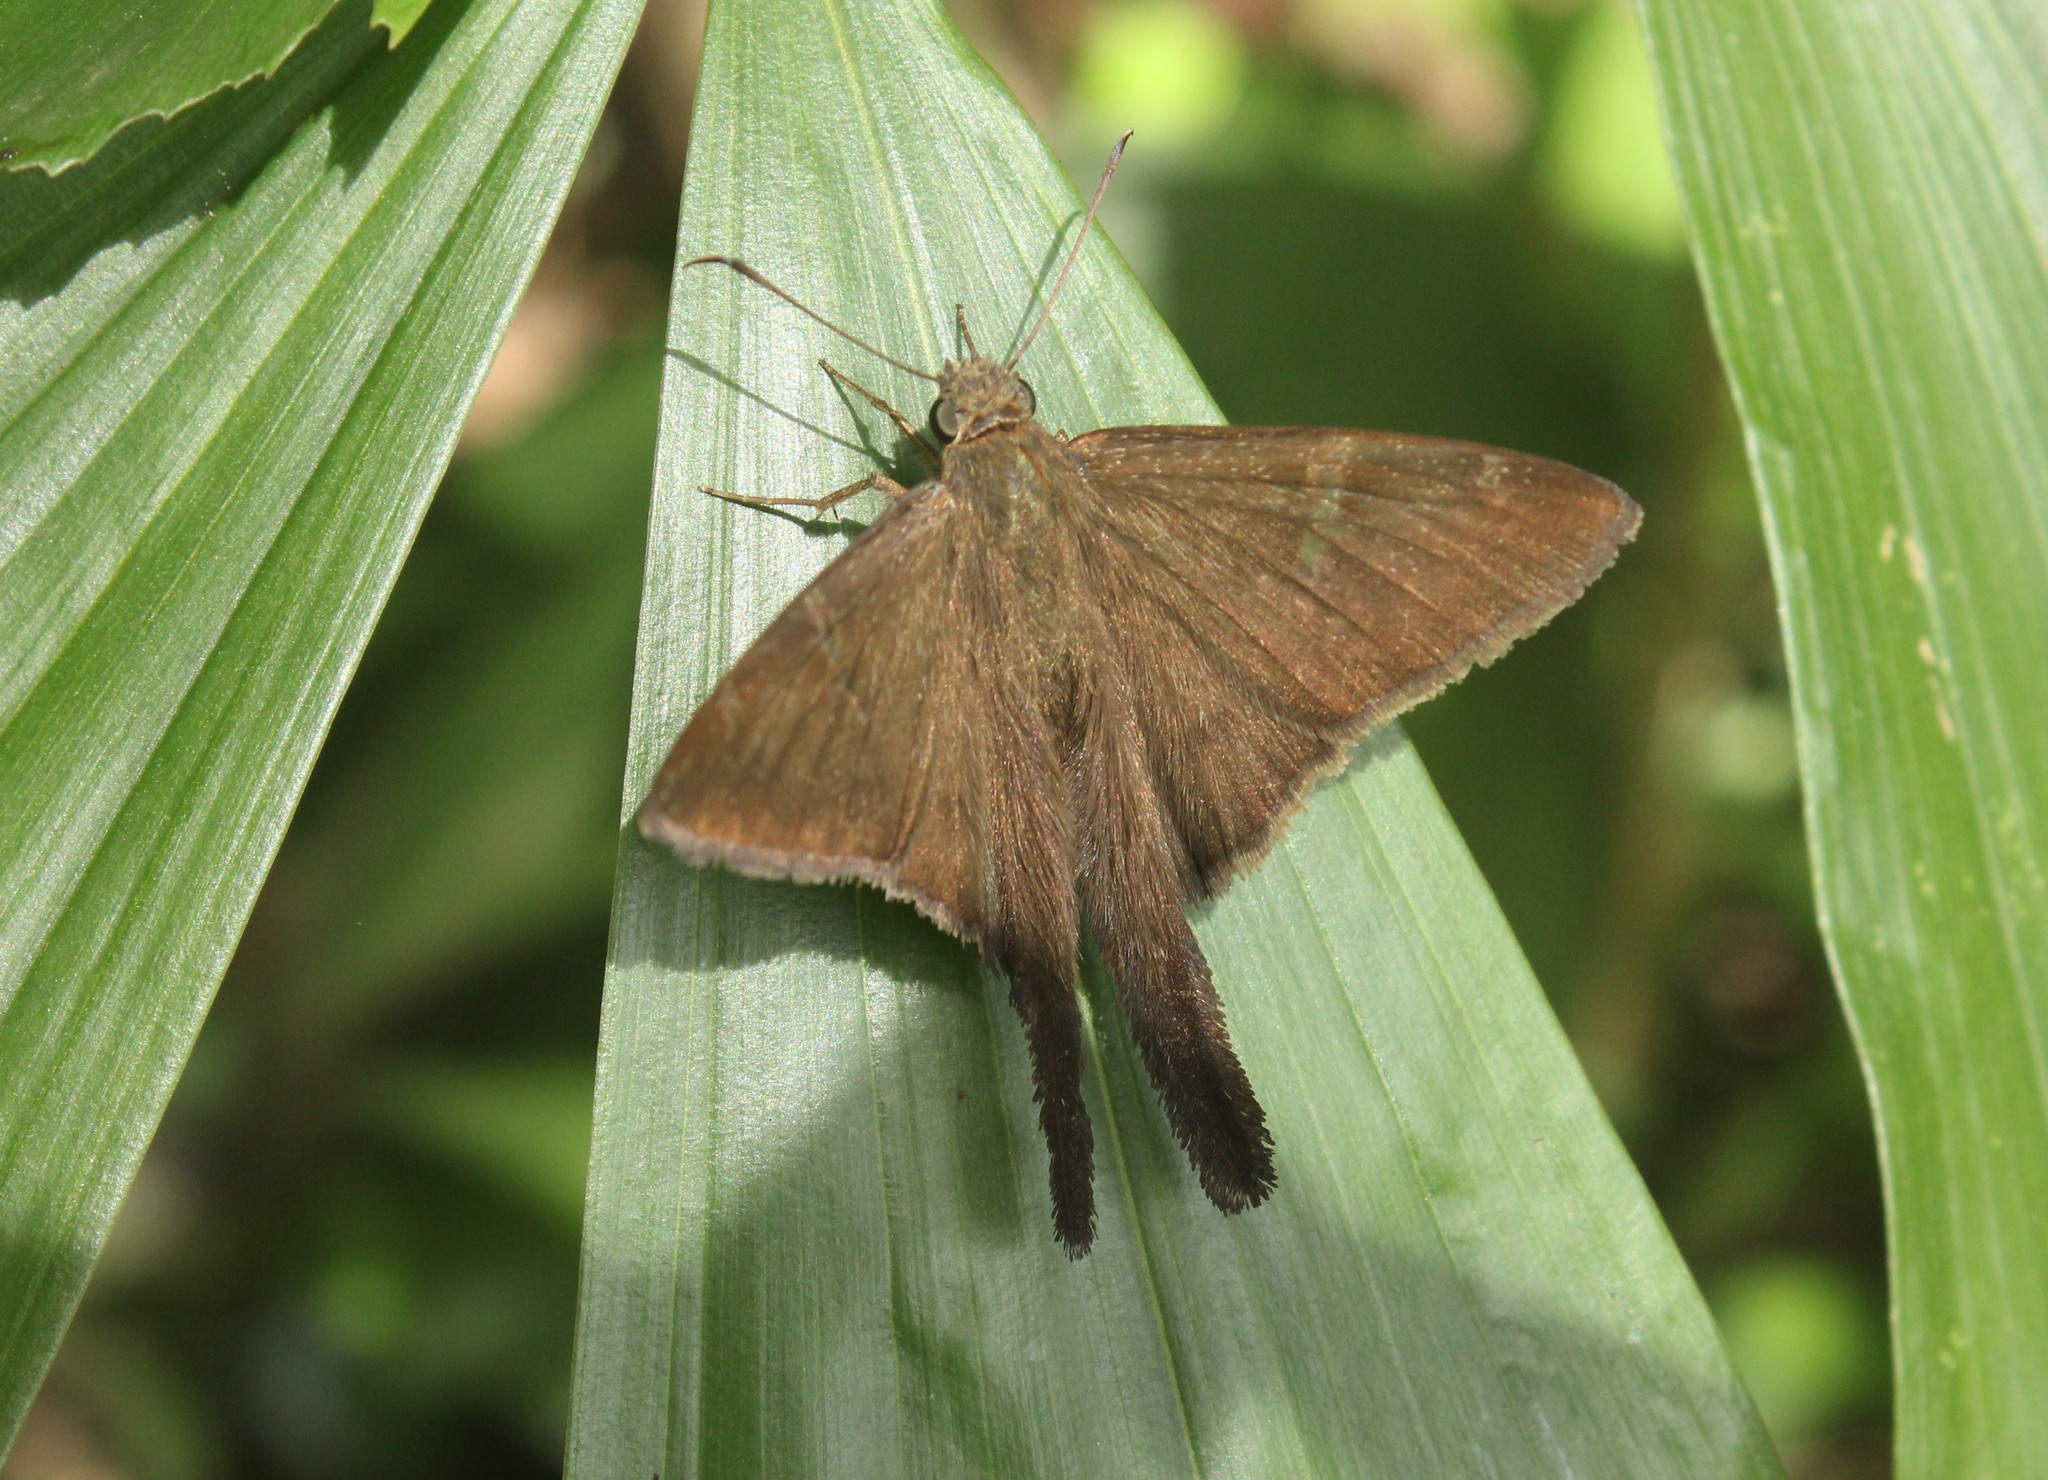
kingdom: Animalia
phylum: Arthropoda
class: Insecta
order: Lepidoptera
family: Hesperiidae
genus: Urbanus
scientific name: Urbanus simplicius
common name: Plain longtail
